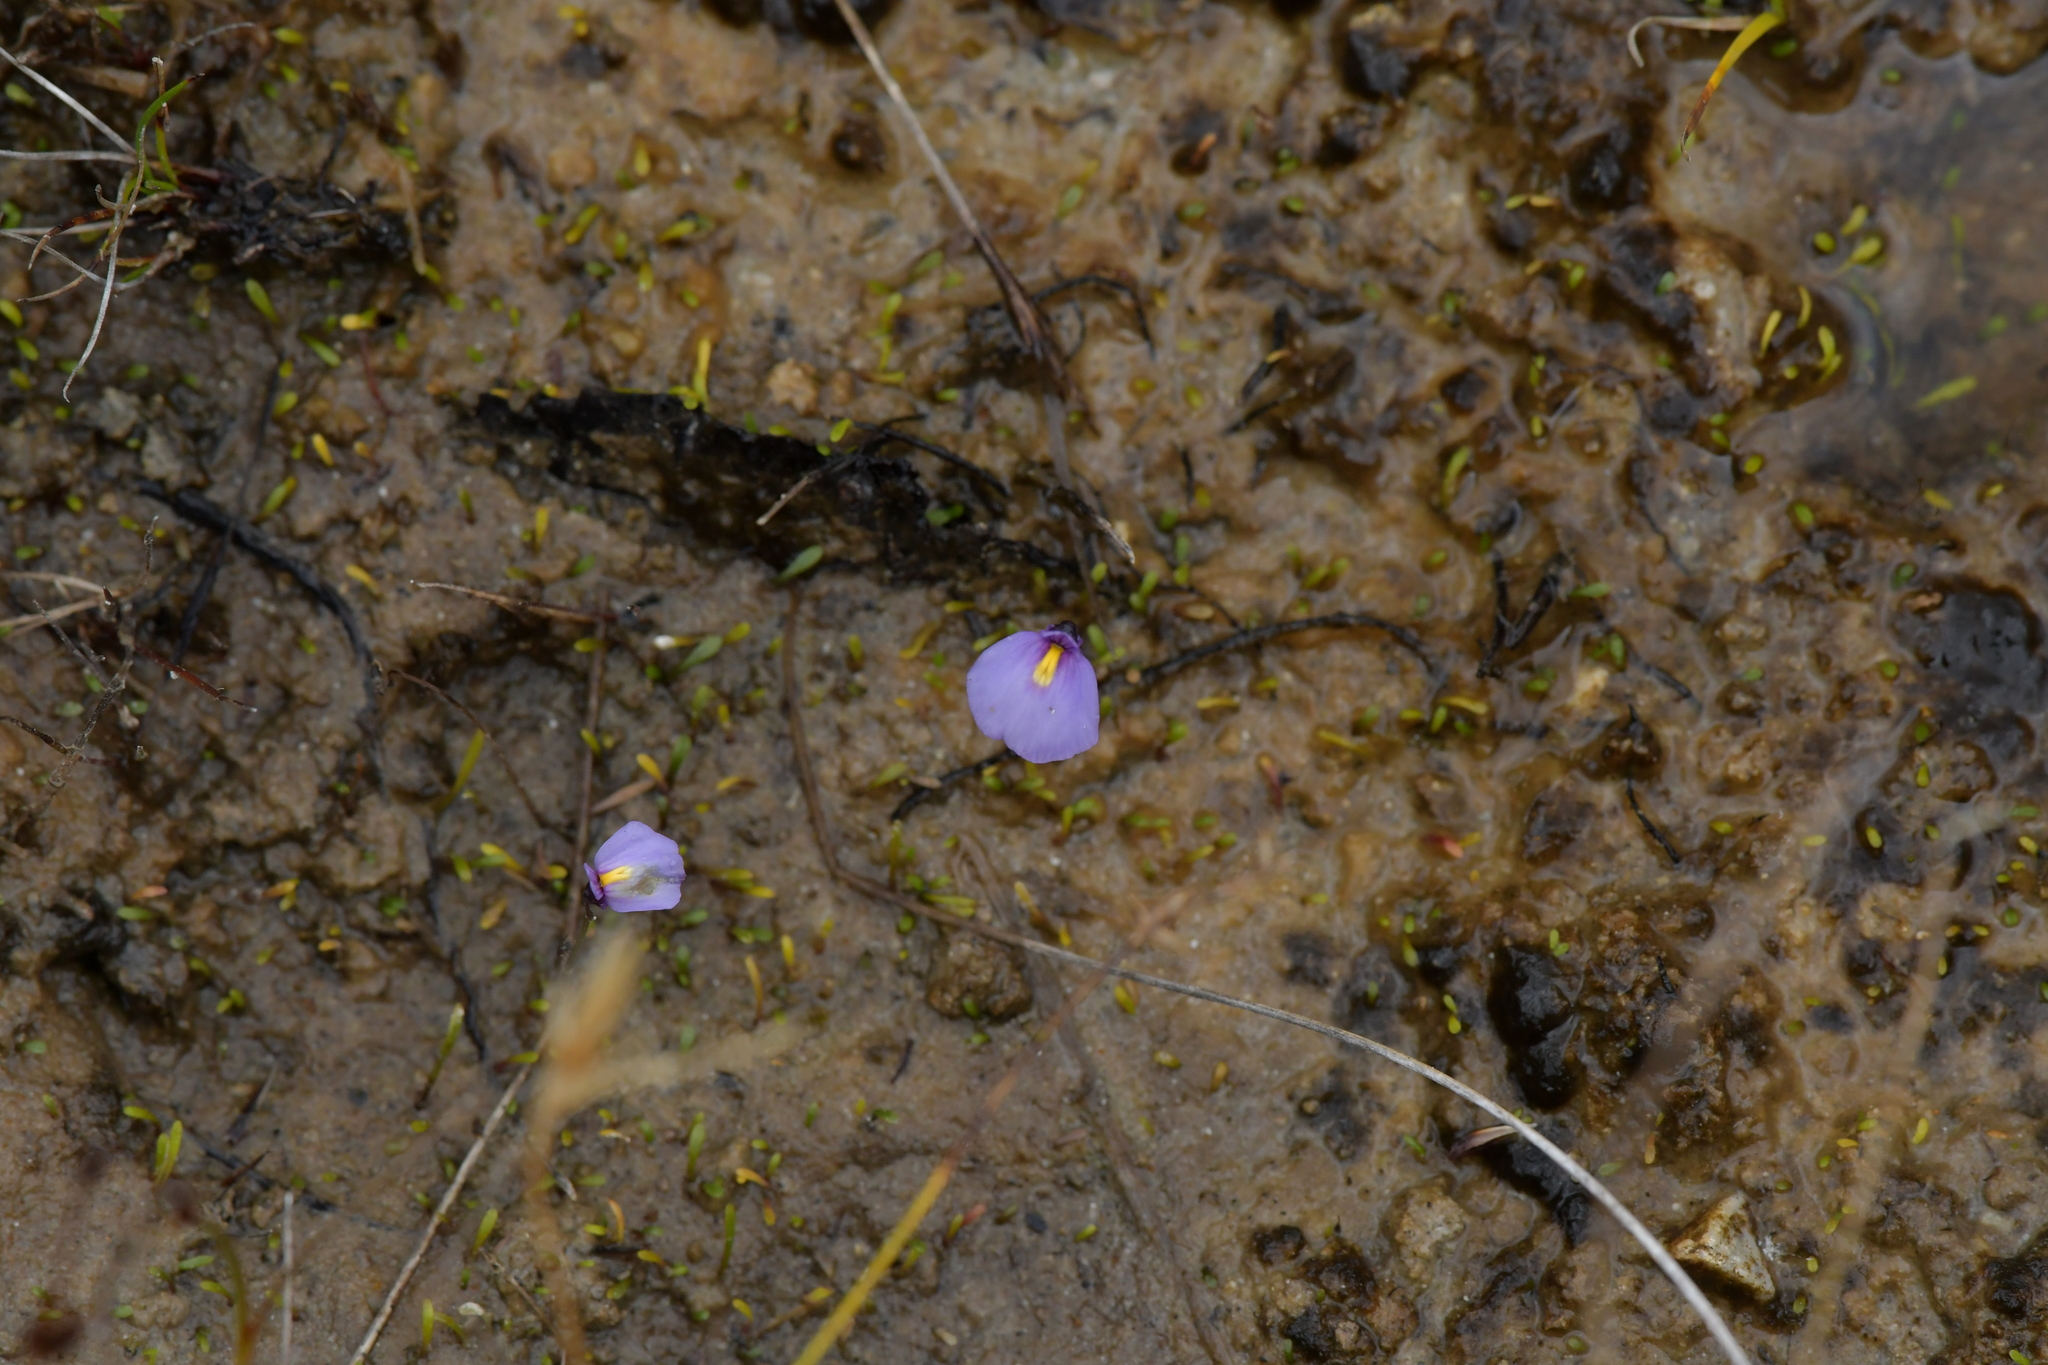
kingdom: Plantae
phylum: Tracheophyta
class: Magnoliopsida
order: Lamiales
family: Lentibulariaceae
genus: Utricularia
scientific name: Utricularia dichotoma
